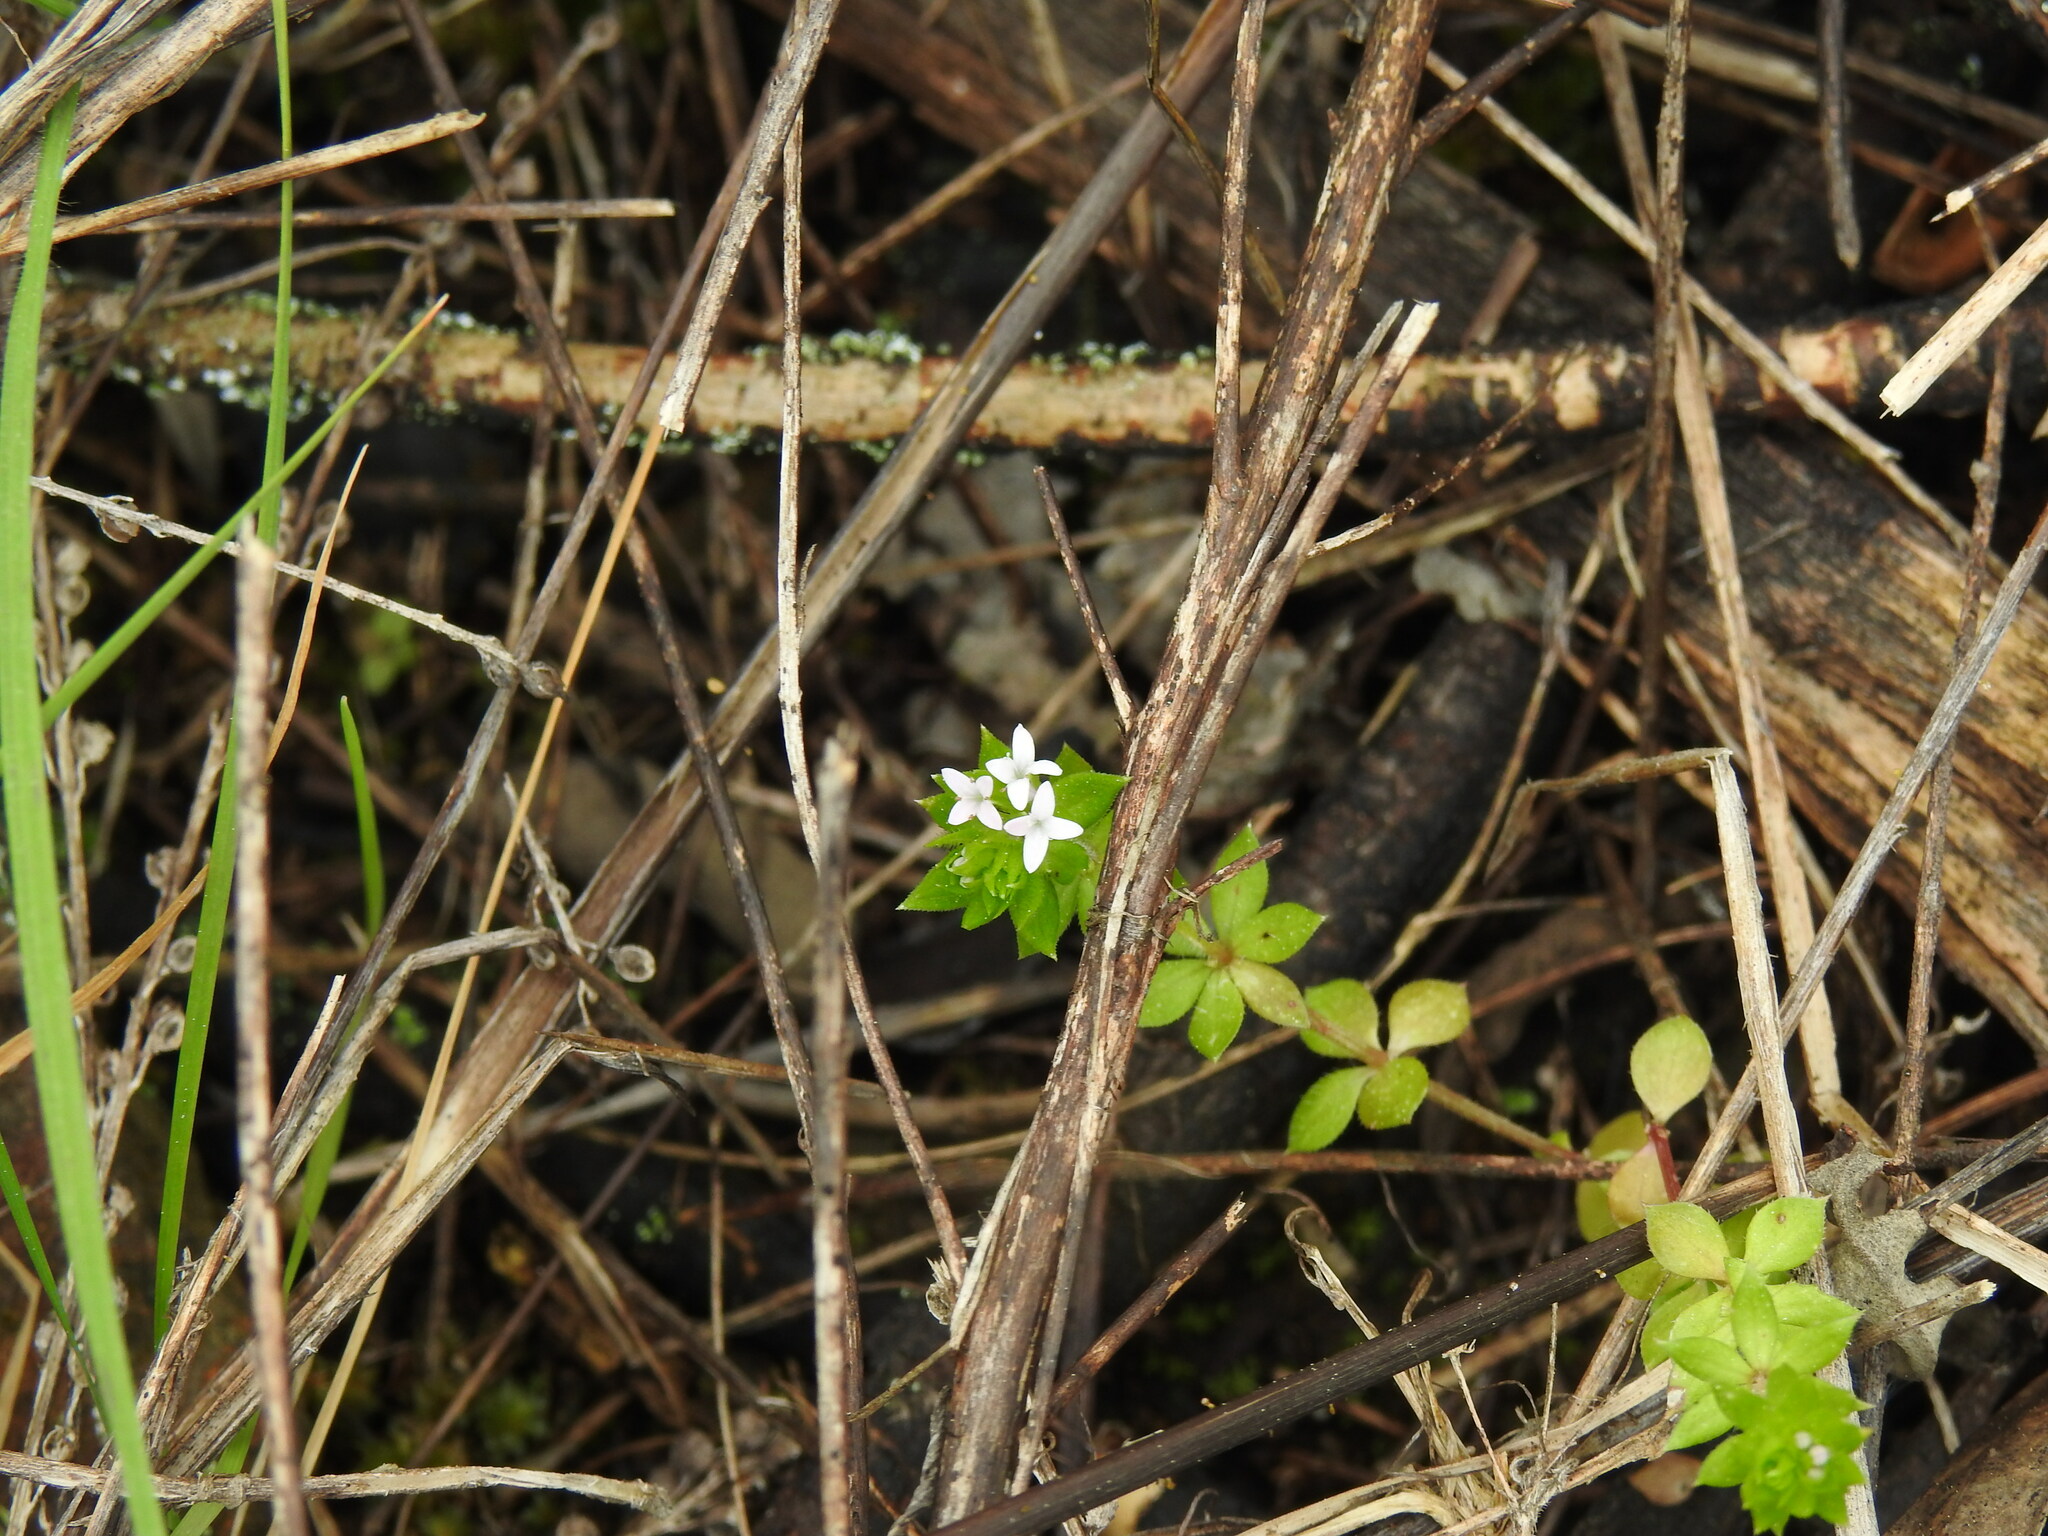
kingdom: Plantae
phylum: Tracheophyta
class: Magnoliopsida
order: Gentianales
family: Rubiaceae
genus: Sherardia
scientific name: Sherardia arvensis
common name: Field madder
